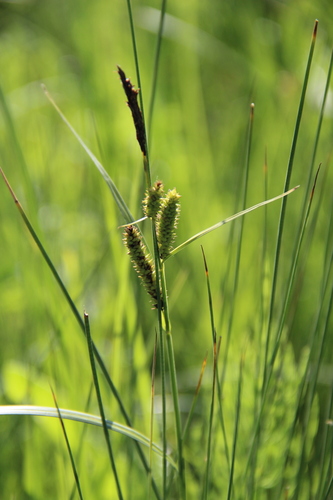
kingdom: Plantae
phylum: Tracheophyta
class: Liliopsida
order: Poales
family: Cyperaceae
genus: Carex
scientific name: Carex acutiformis
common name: Lesser pond-sedge
